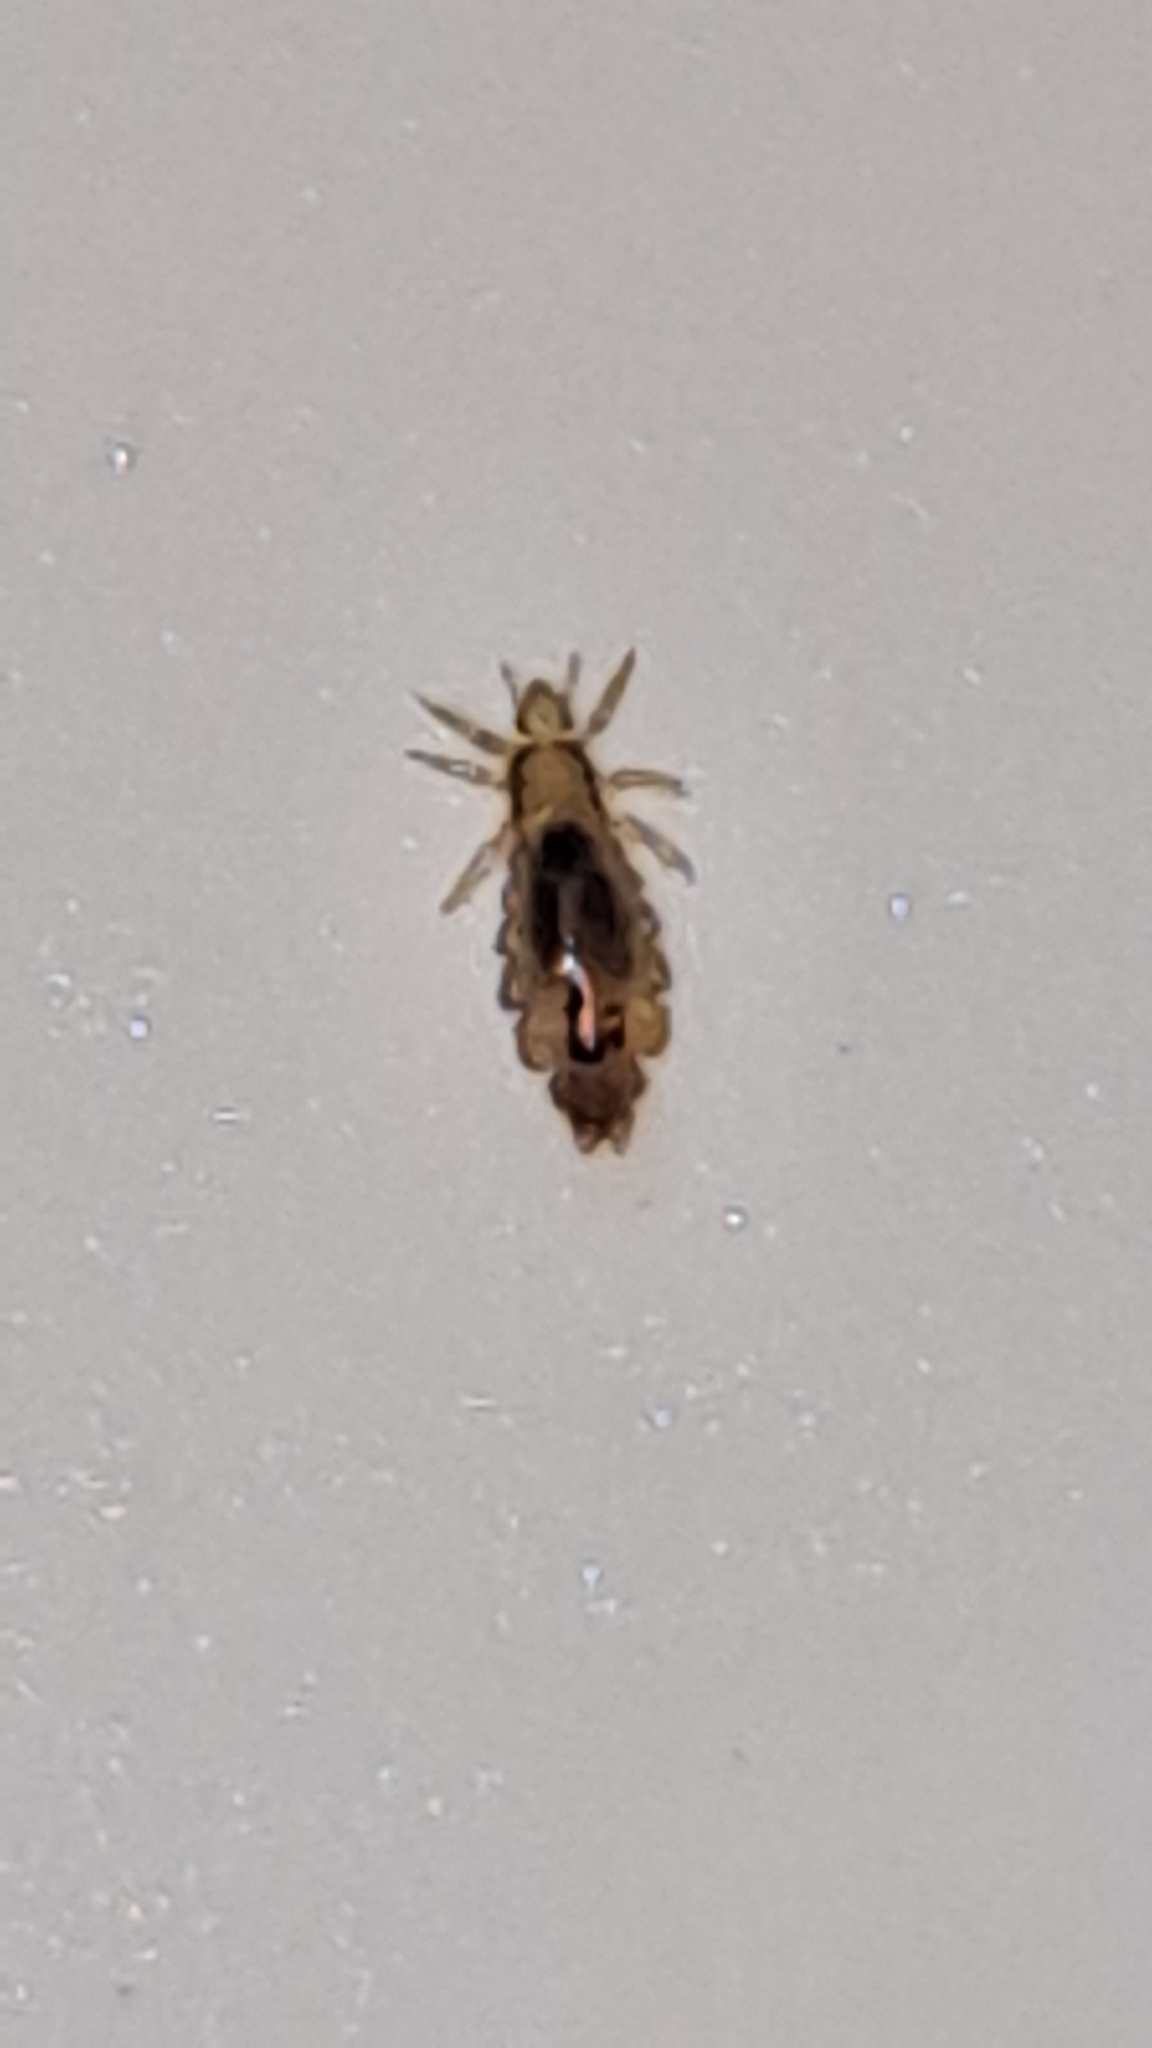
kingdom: Animalia
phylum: Arthropoda
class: Insecta
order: Psocodea
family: Pediculidae
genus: Pediculus
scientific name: Pediculus humanus
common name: Body louse
